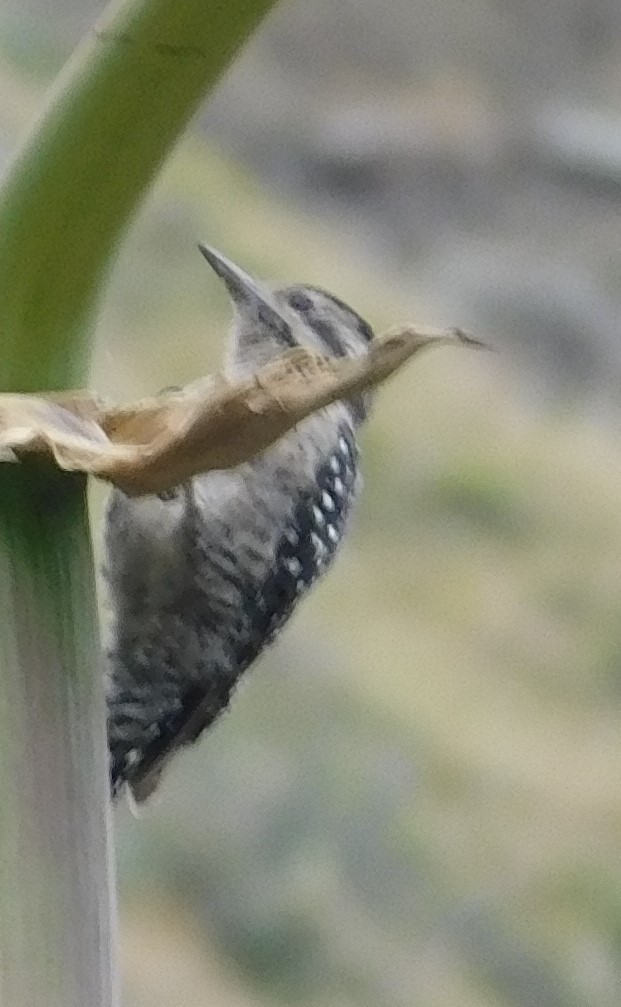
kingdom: Animalia
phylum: Chordata
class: Aves
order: Piciformes
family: Picidae
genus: Dryobates
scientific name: Dryobates scalaris
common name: Ladder-backed woodpecker
